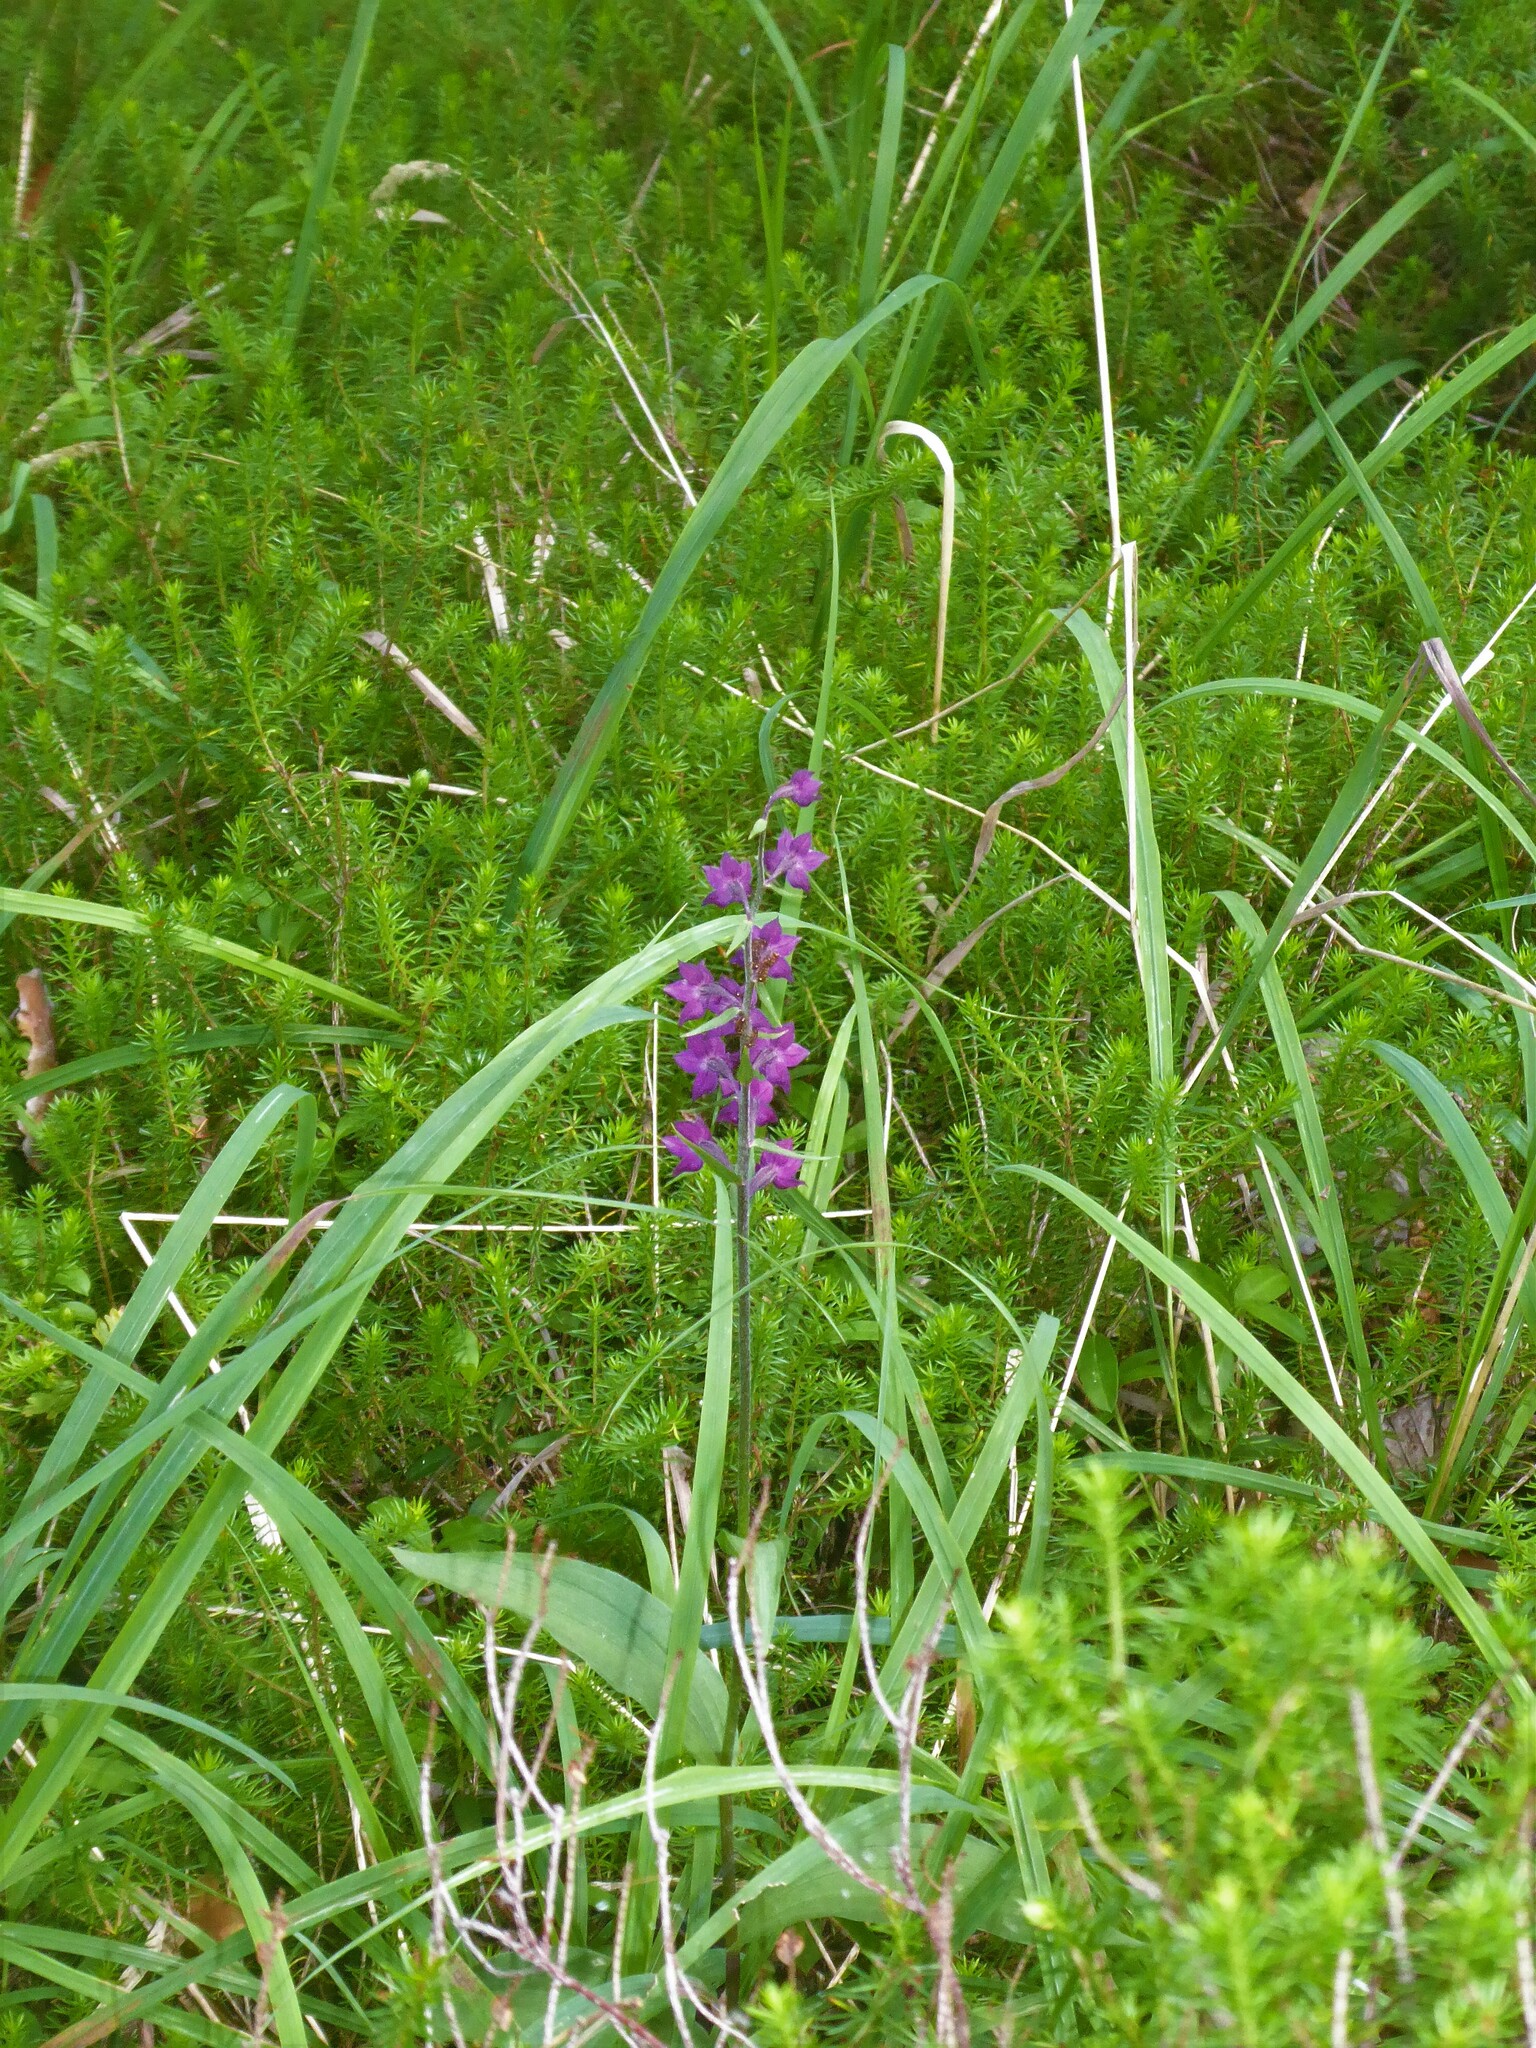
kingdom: Plantae
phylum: Tracheophyta
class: Liliopsida
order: Asparagales
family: Orchidaceae
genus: Epipactis
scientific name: Epipactis atrorubens
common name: Dark-red helleborine
